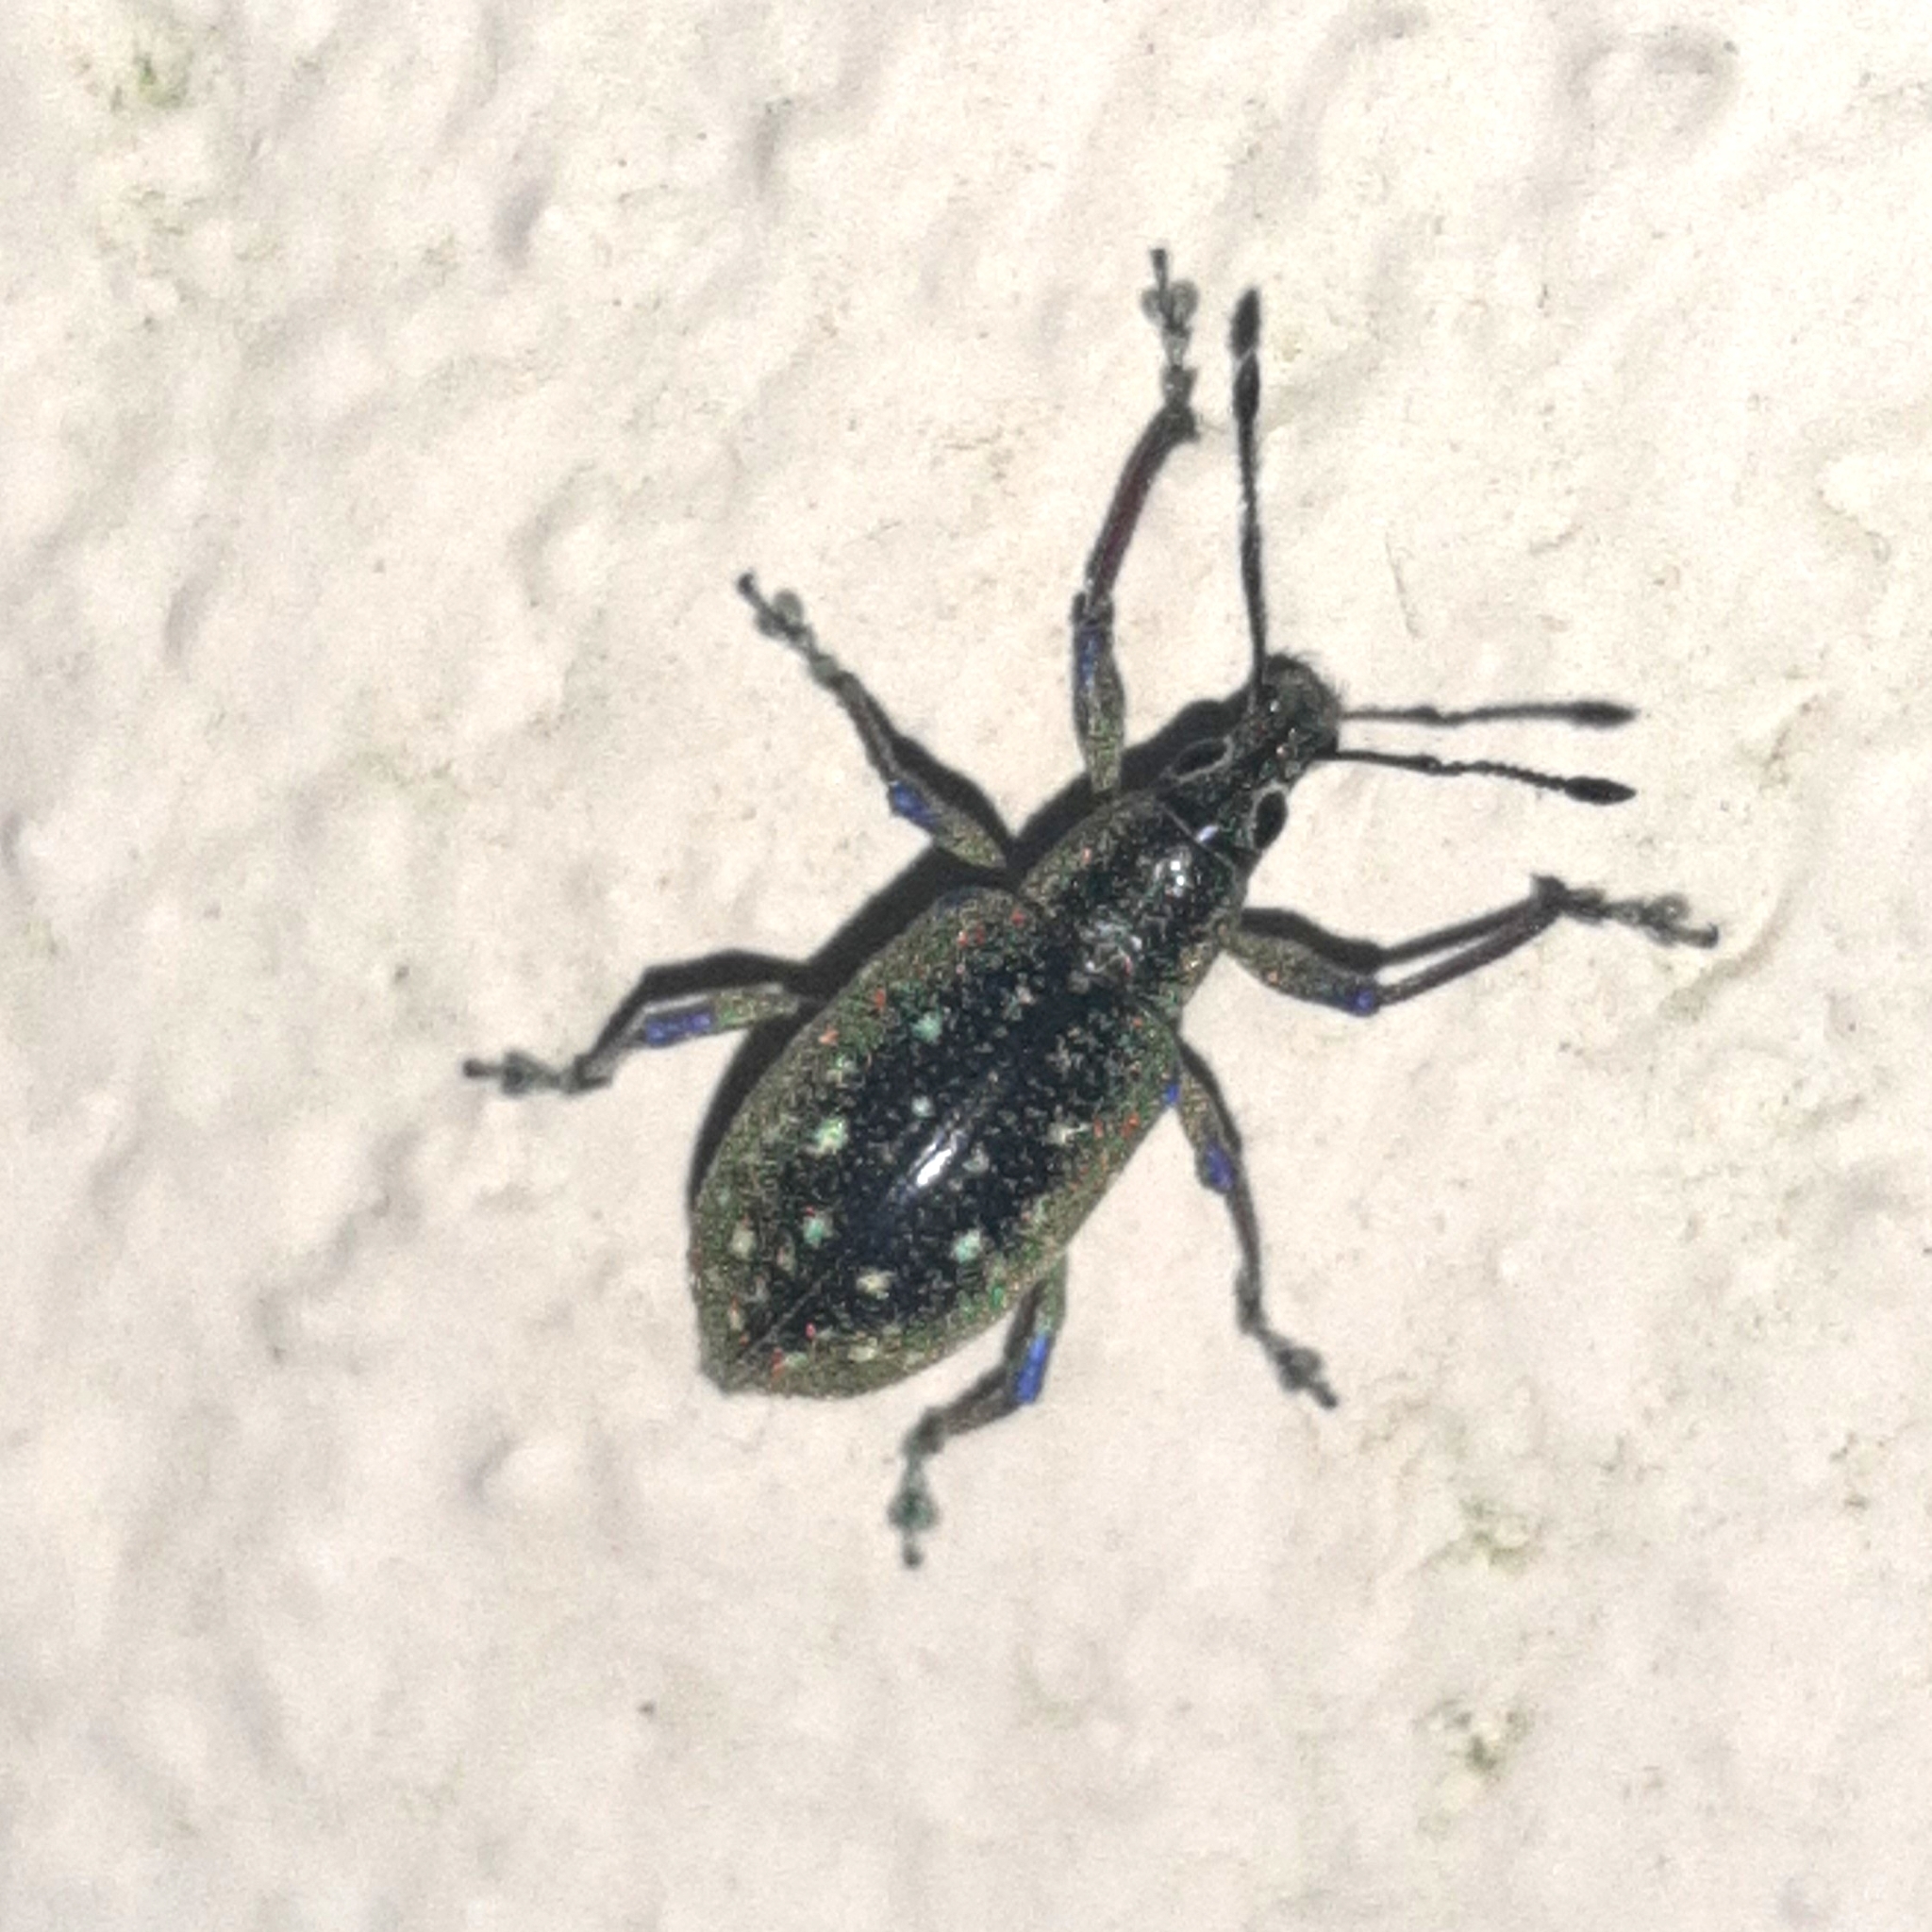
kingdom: Animalia
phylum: Arthropoda
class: Insecta
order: Coleoptera
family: Curculionidae
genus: Exophthalmus
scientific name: Exophthalmus jekelianus
